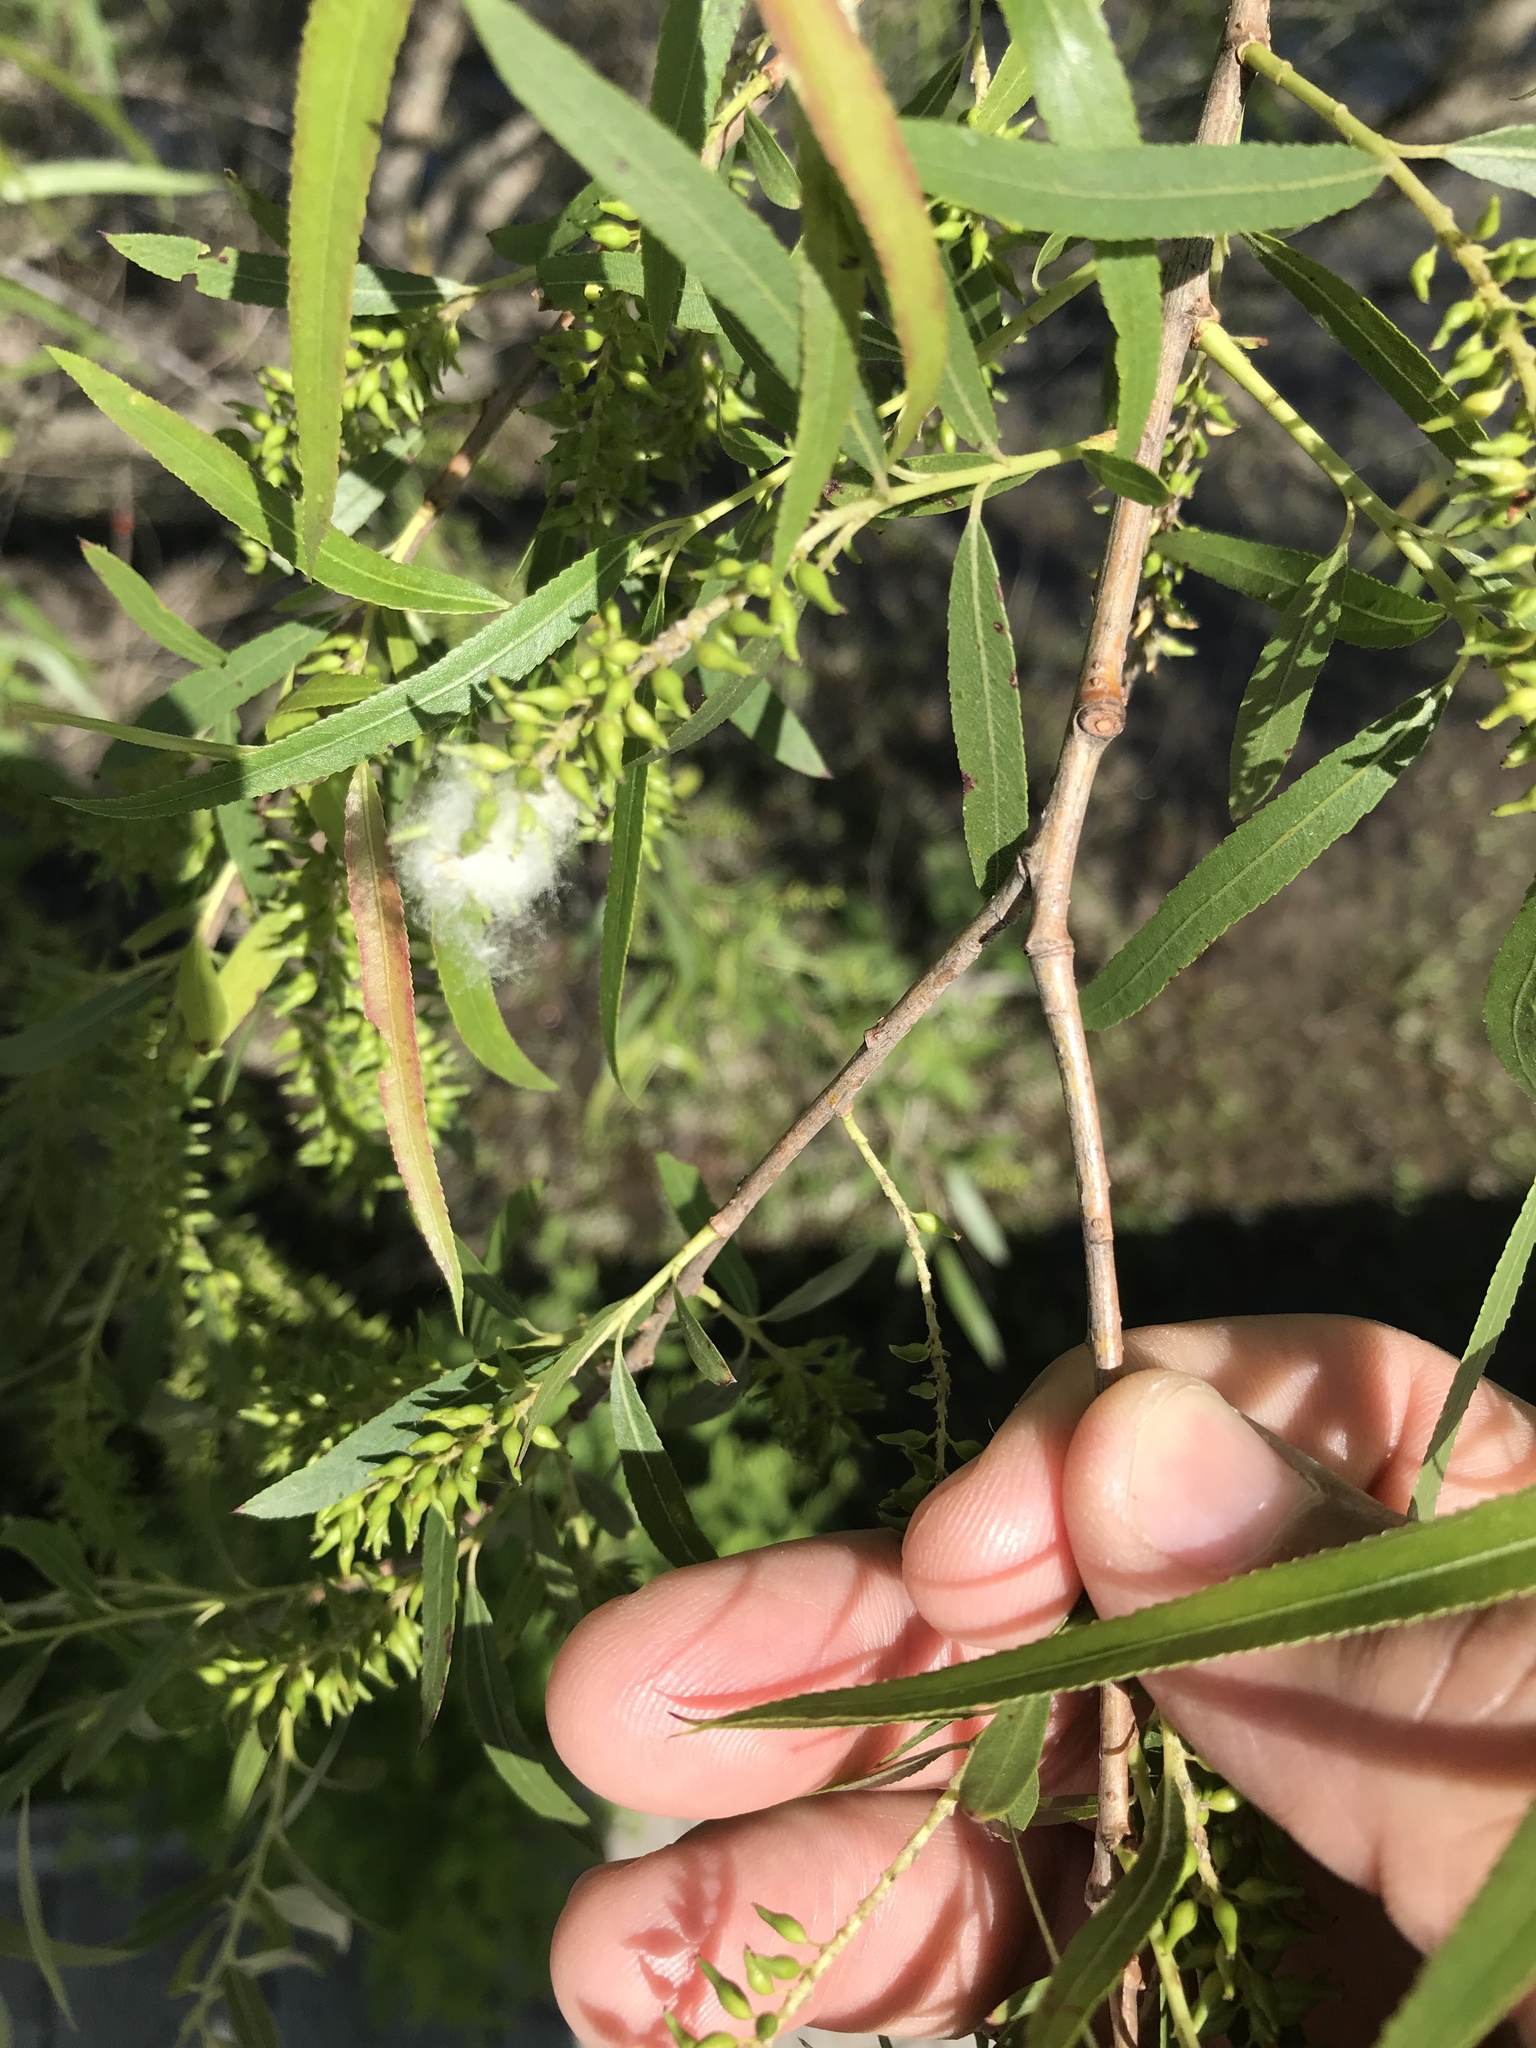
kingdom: Plantae
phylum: Tracheophyta
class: Magnoliopsida
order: Malpighiales
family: Salicaceae
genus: Salix
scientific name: Salix nigra
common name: Black willow
